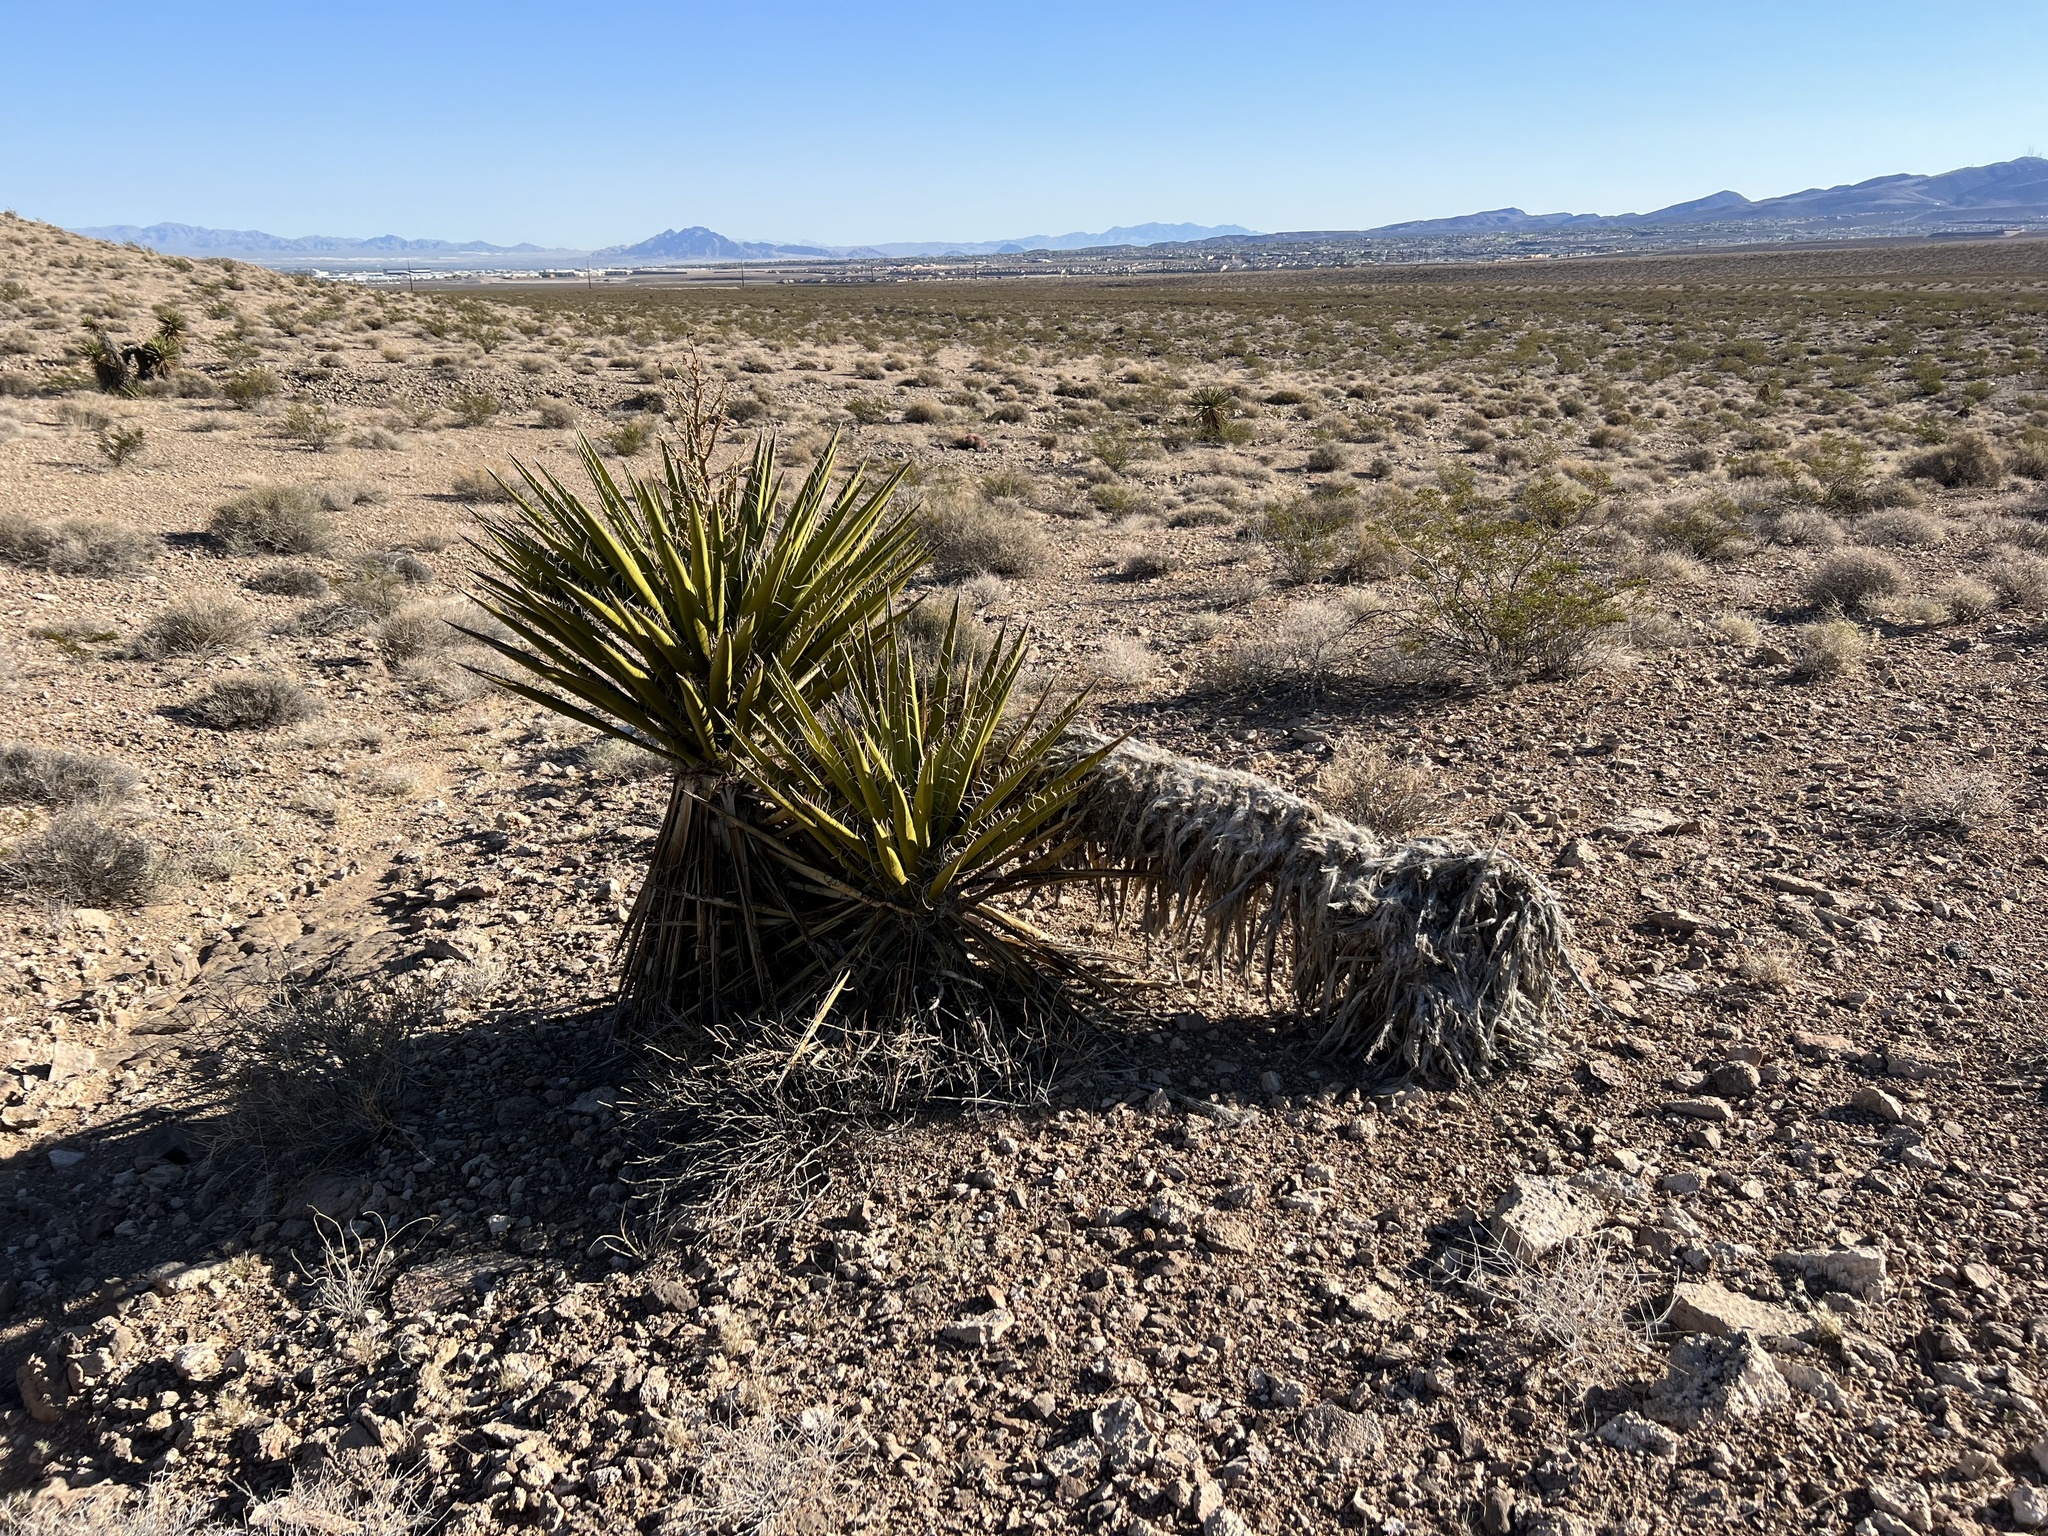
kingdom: Plantae
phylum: Tracheophyta
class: Liliopsida
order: Asparagales
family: Asparagaceae
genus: Yucca
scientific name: Yucca schidigera
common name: Mojave yucca
